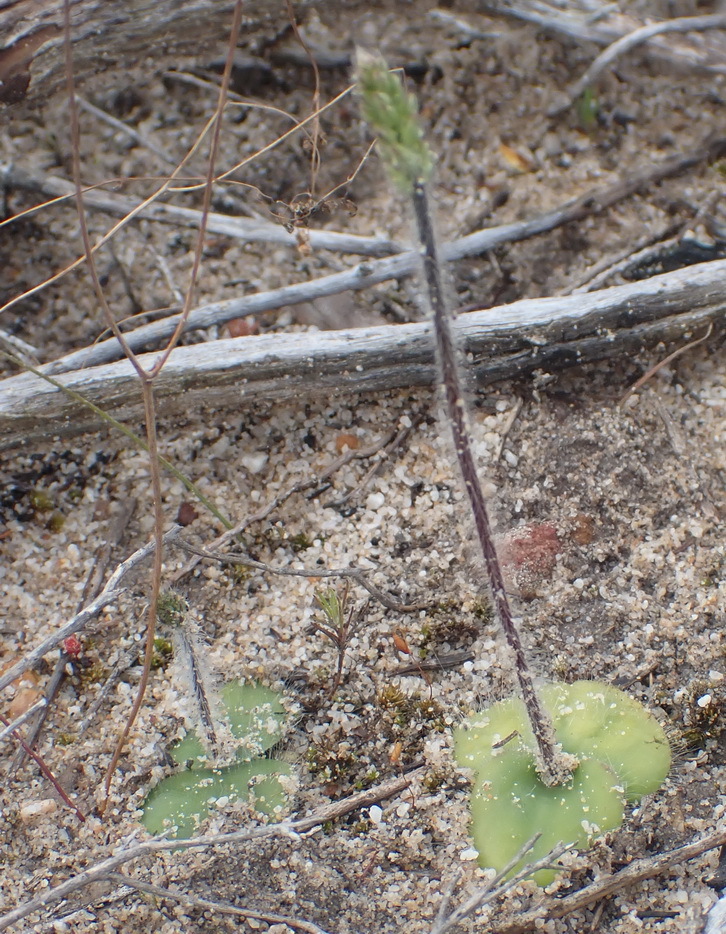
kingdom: Plantae
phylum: Tracheophyta
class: Liliopsida
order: Asparagales
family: Orchidaceae
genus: Holothrix
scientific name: Holothrix villosa
